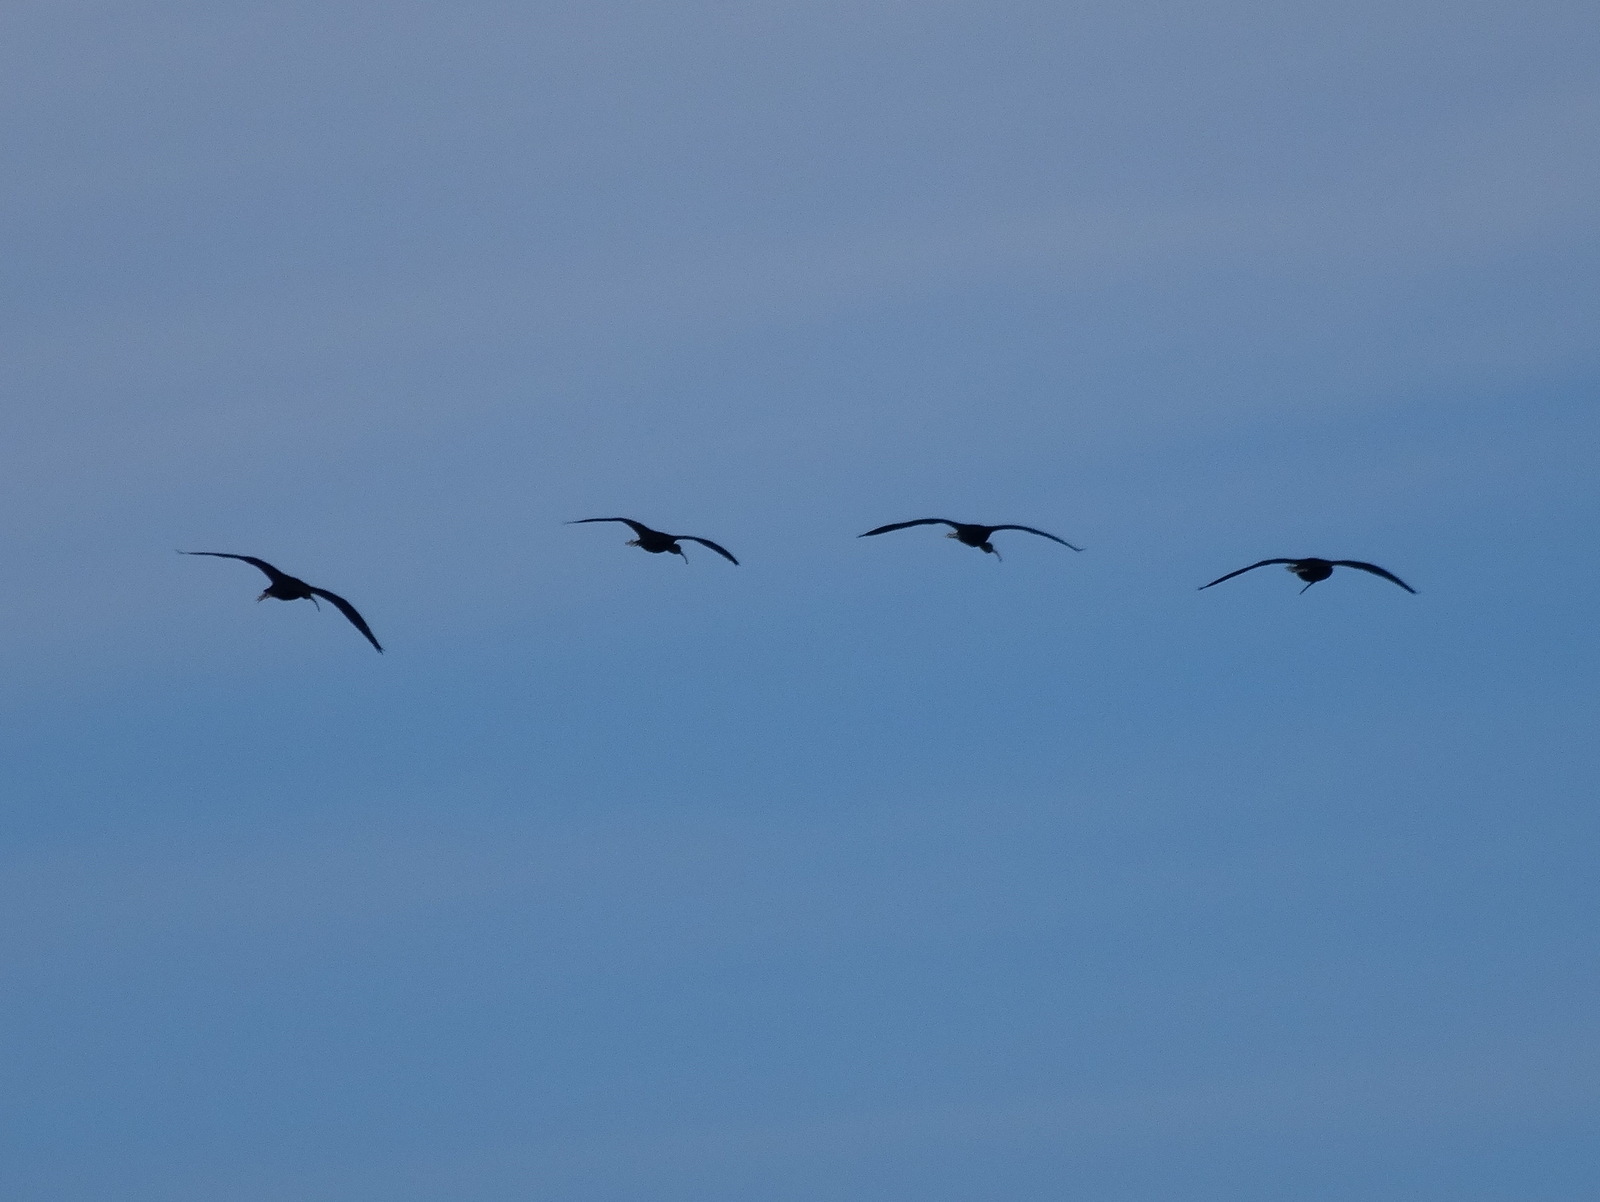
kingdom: Animalia
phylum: Chordata
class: Aves
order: Pelecaniformes
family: Threskiornithidae
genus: Plegadis
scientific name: Plegadis falcinellus
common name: Glossy ibis
